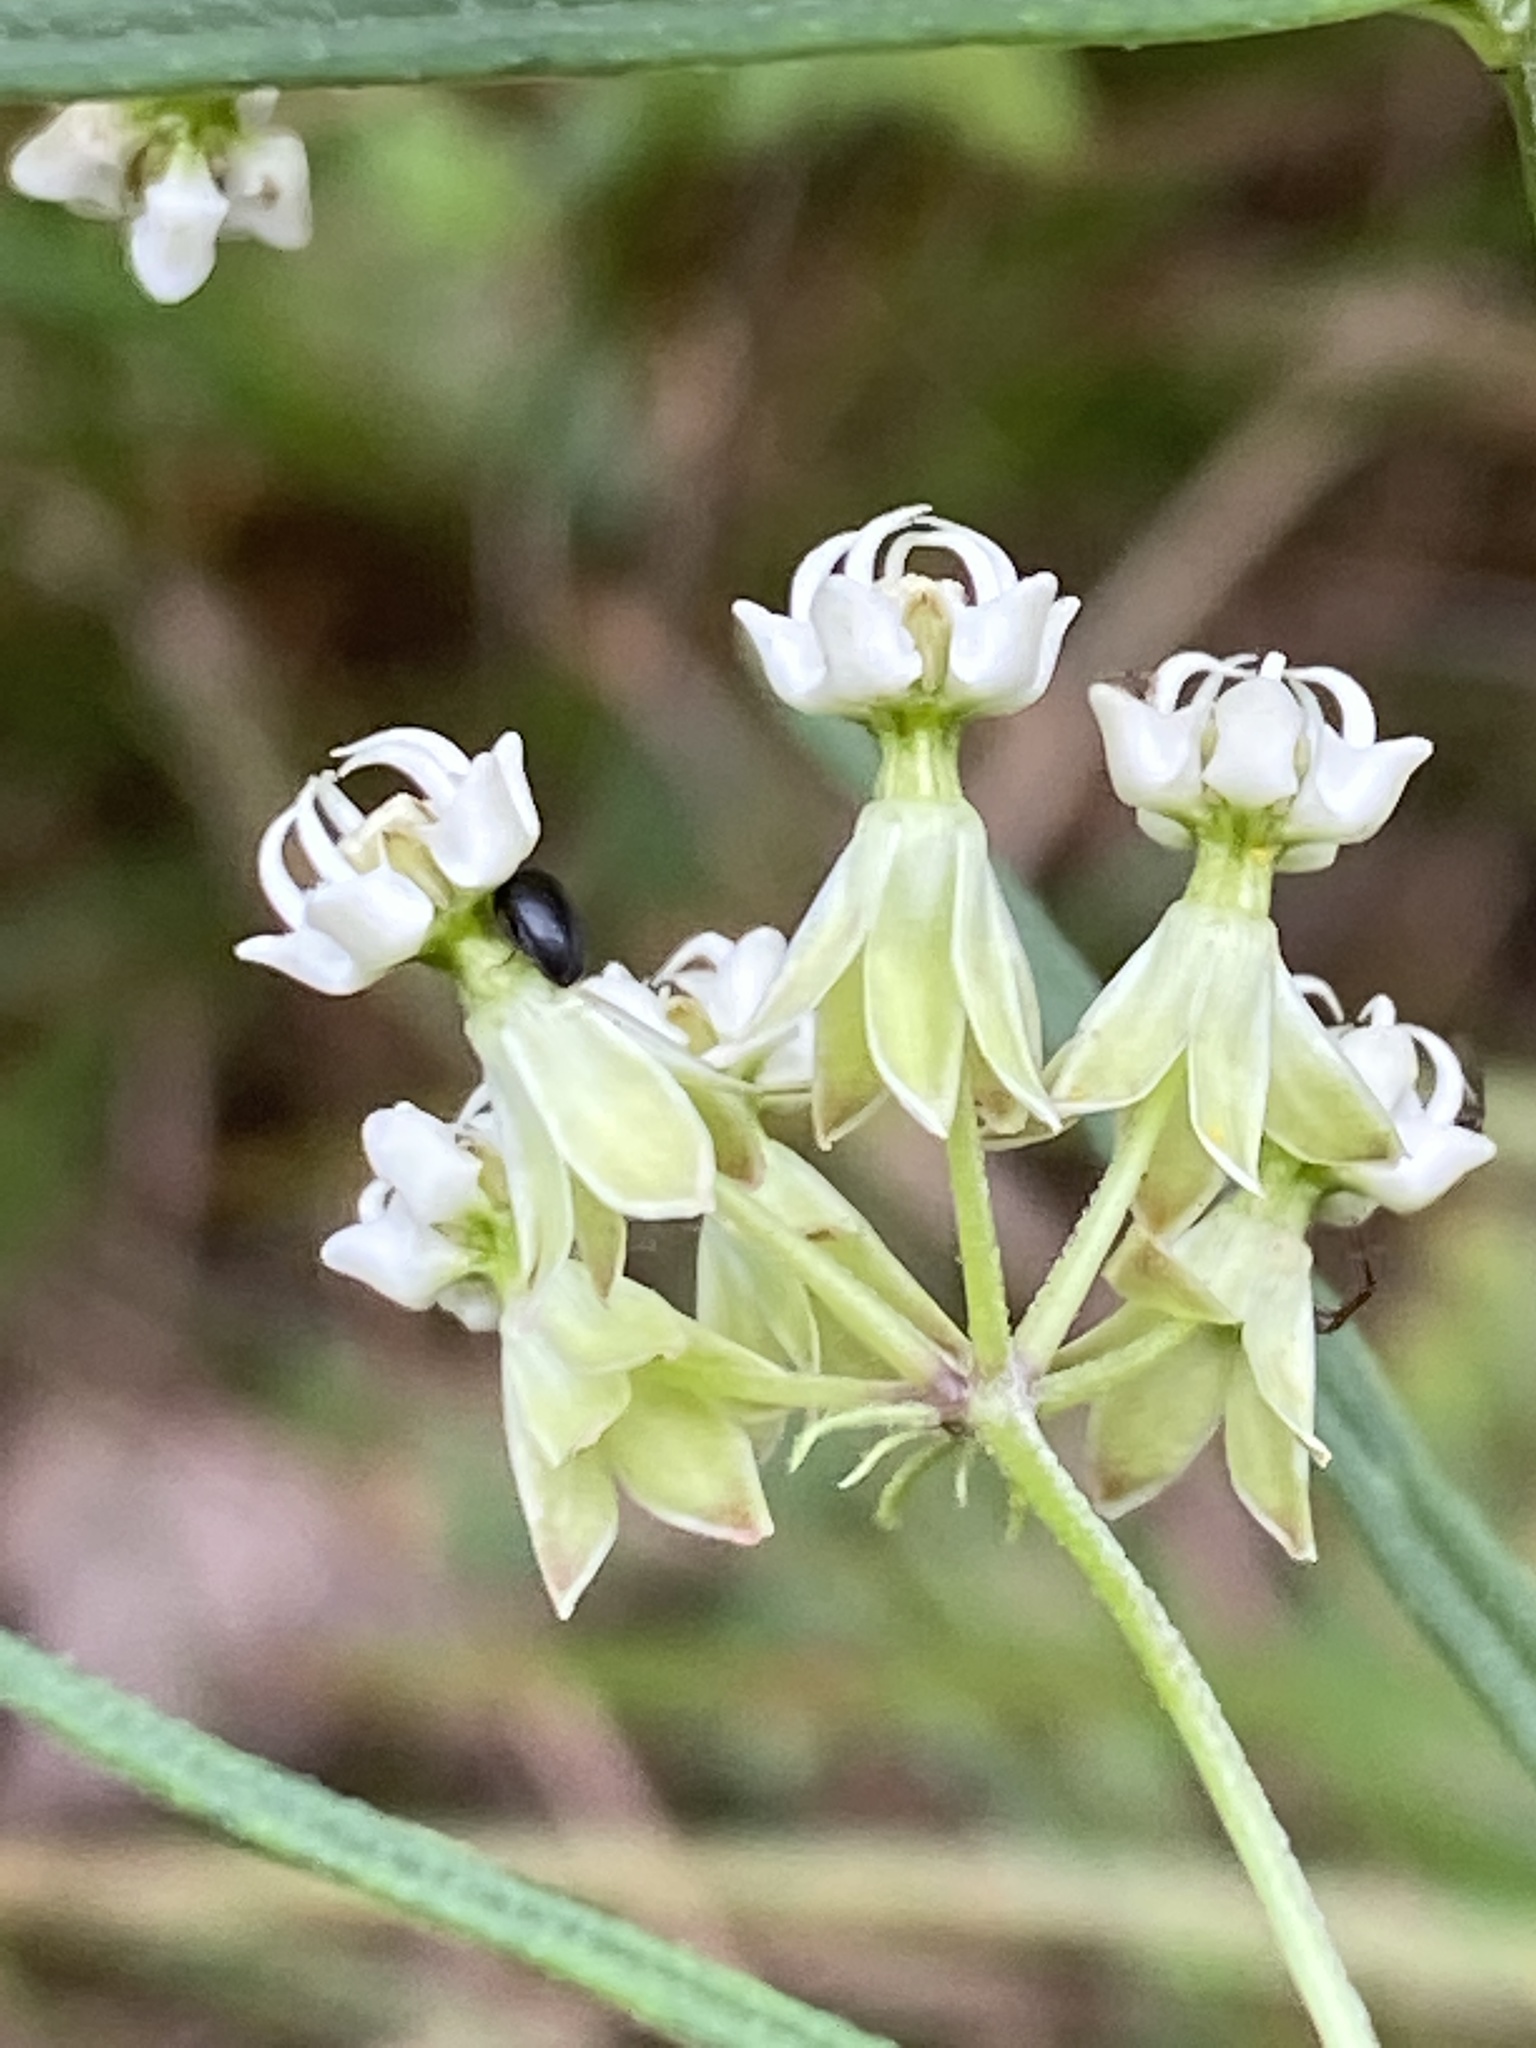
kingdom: Plantae
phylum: Tracheophyta
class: Magnoliopsida
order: Gentianales
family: Apocynaceae
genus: Asclepias
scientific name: Asclepias verticillata
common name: Eastern whorled milkweed
